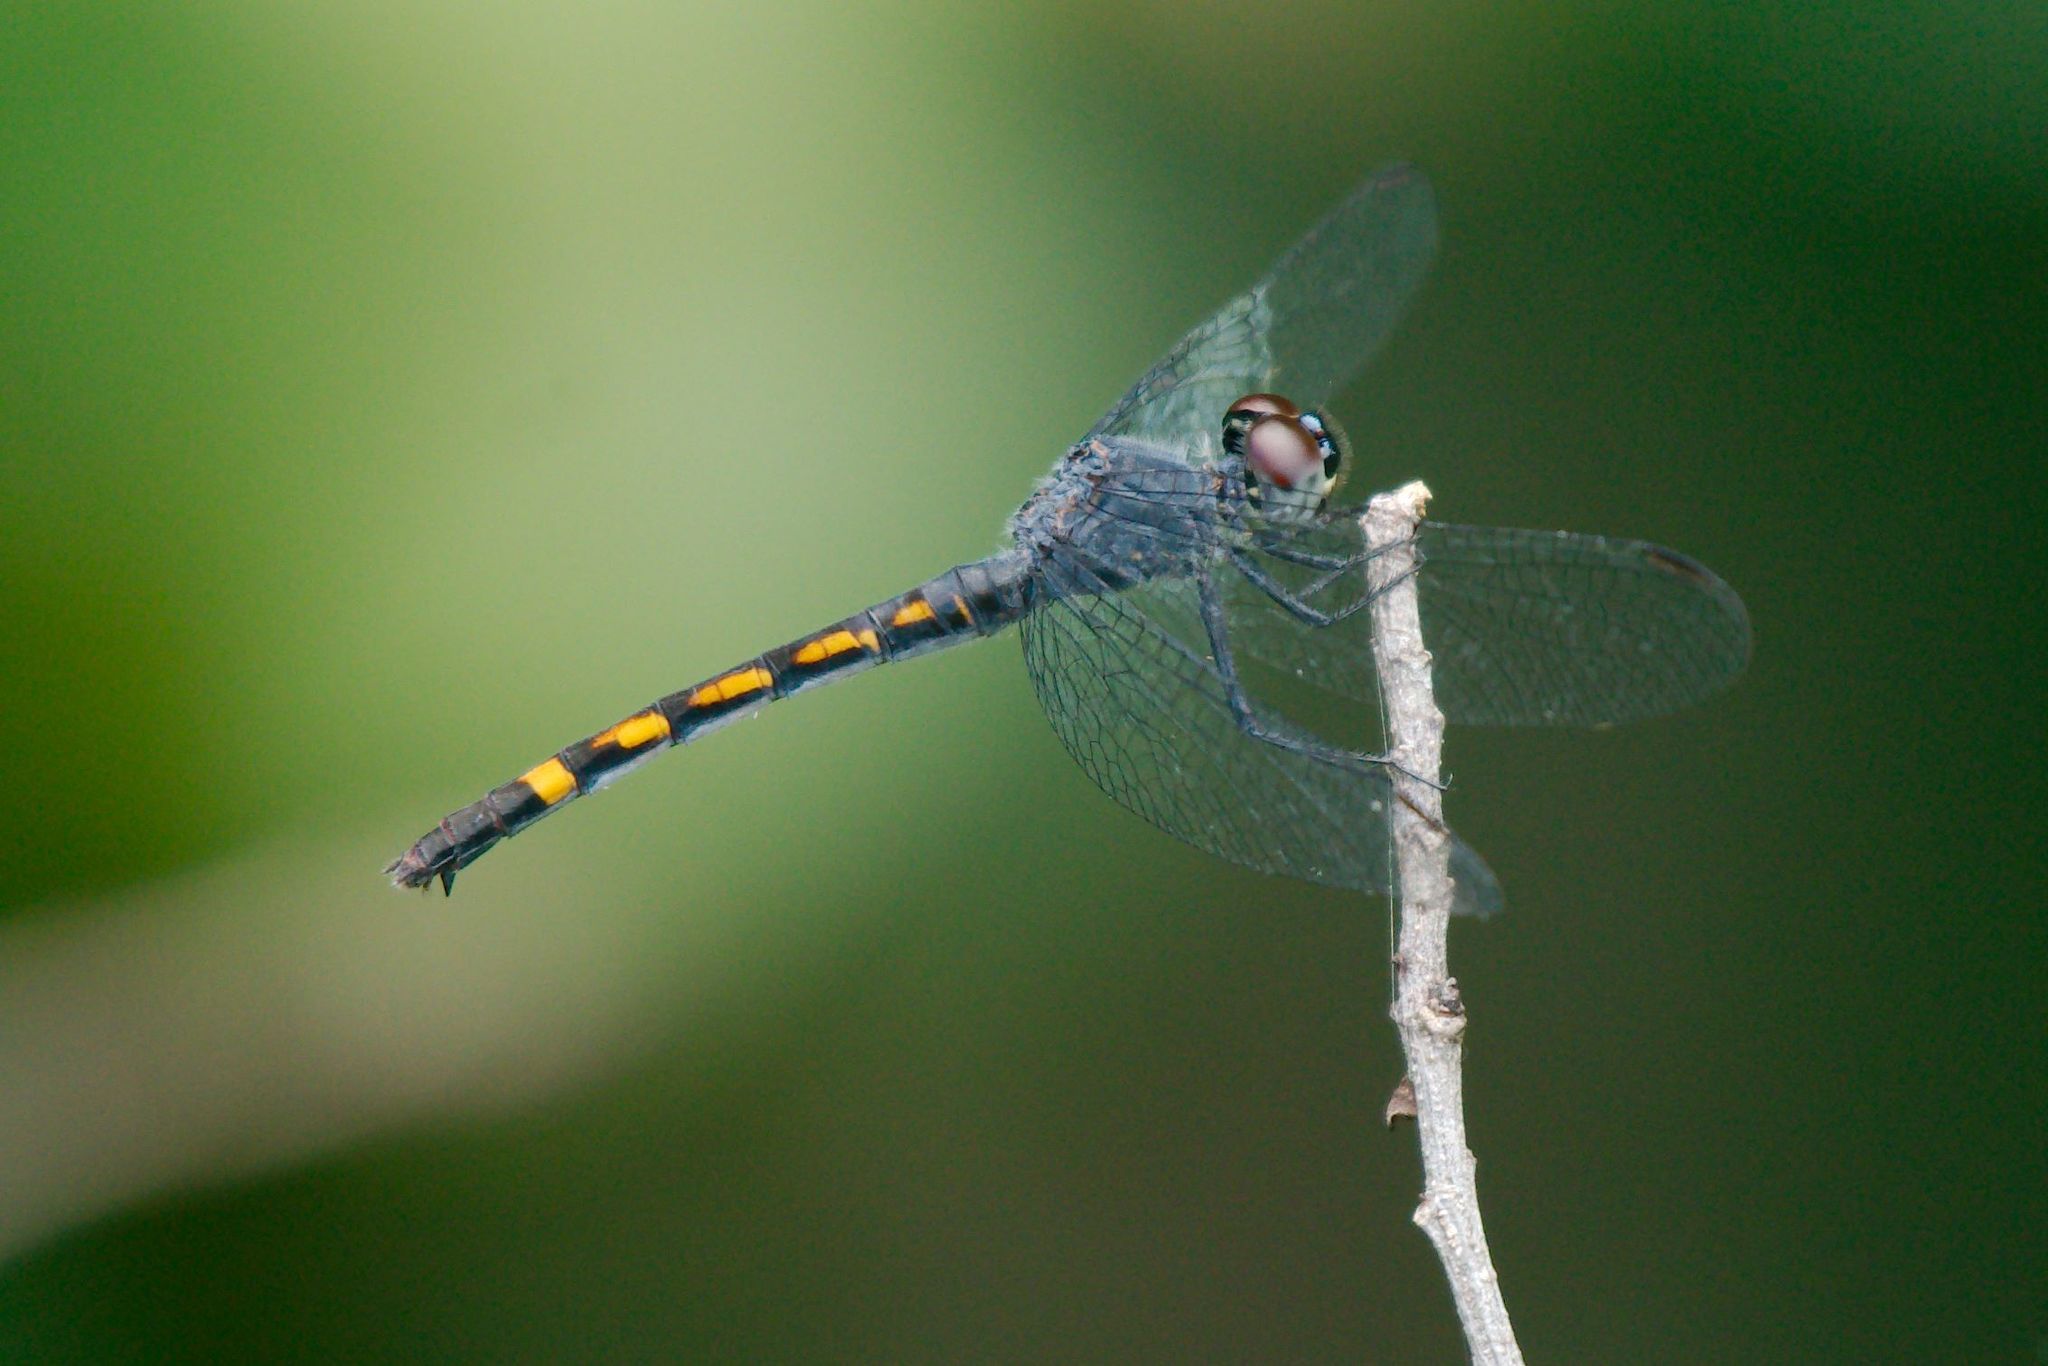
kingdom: Animalia
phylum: Arthropoda
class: Insecta
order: Odonata
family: Libellulidae
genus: Erythrodiplax
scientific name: Erythrodiplax berenice
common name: Seaside dragonlet
